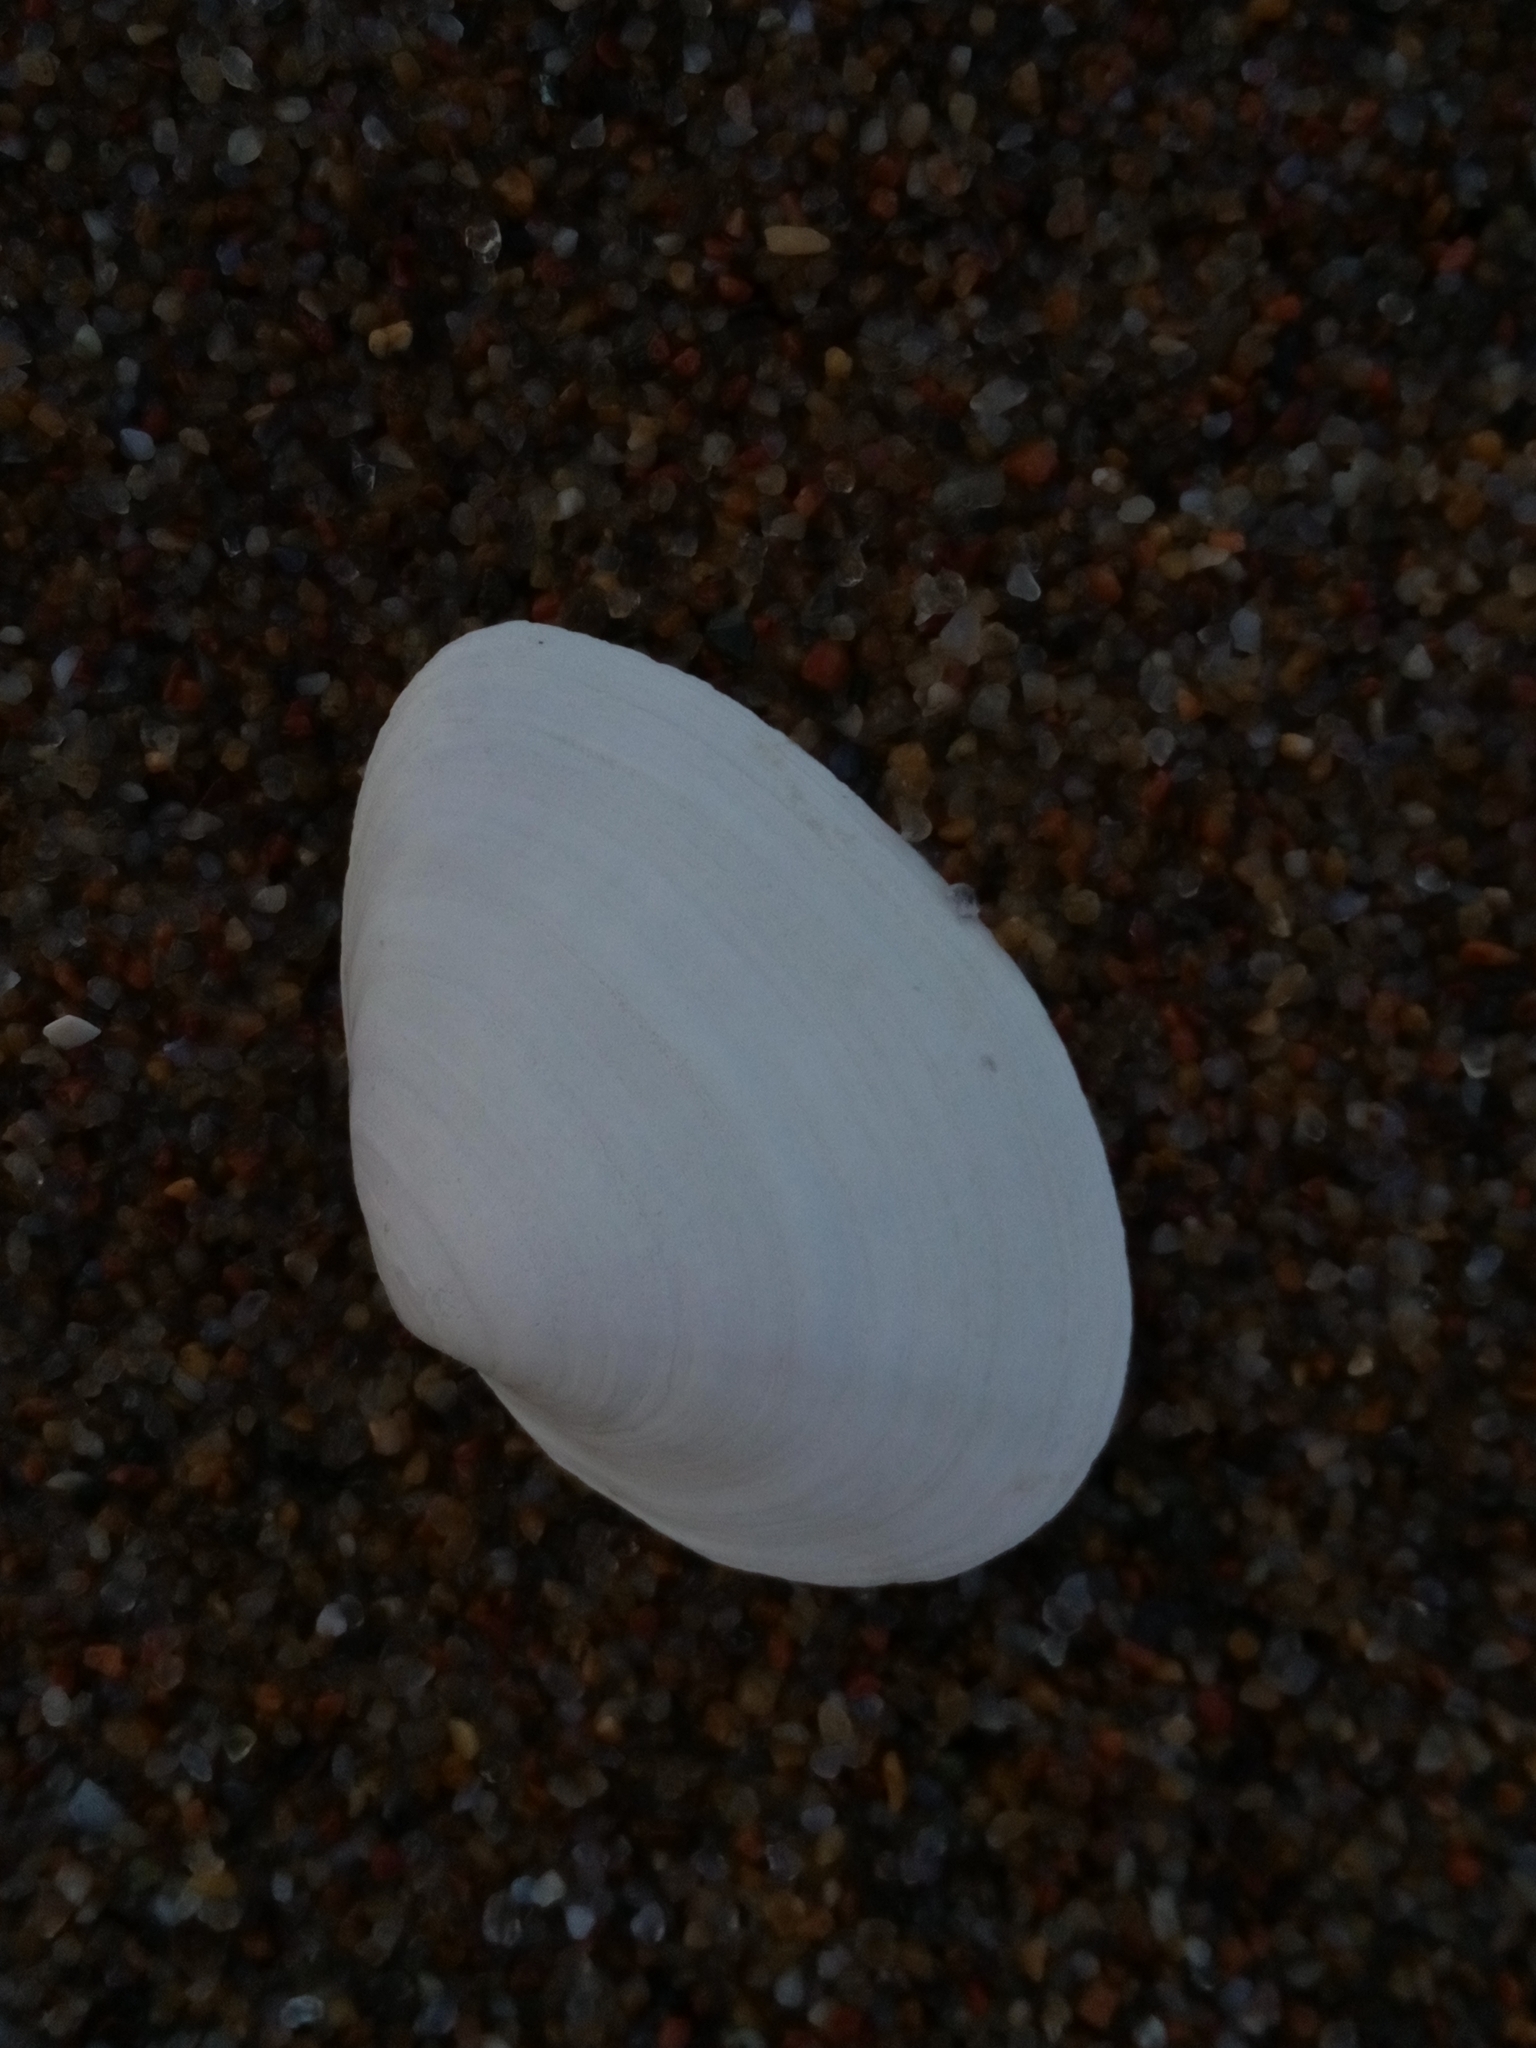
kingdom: Animalia
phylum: Mollusca
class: Bivalvia
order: Myida
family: Myidae
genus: Mya
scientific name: Mya arenaria
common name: Soft-shelled clam
